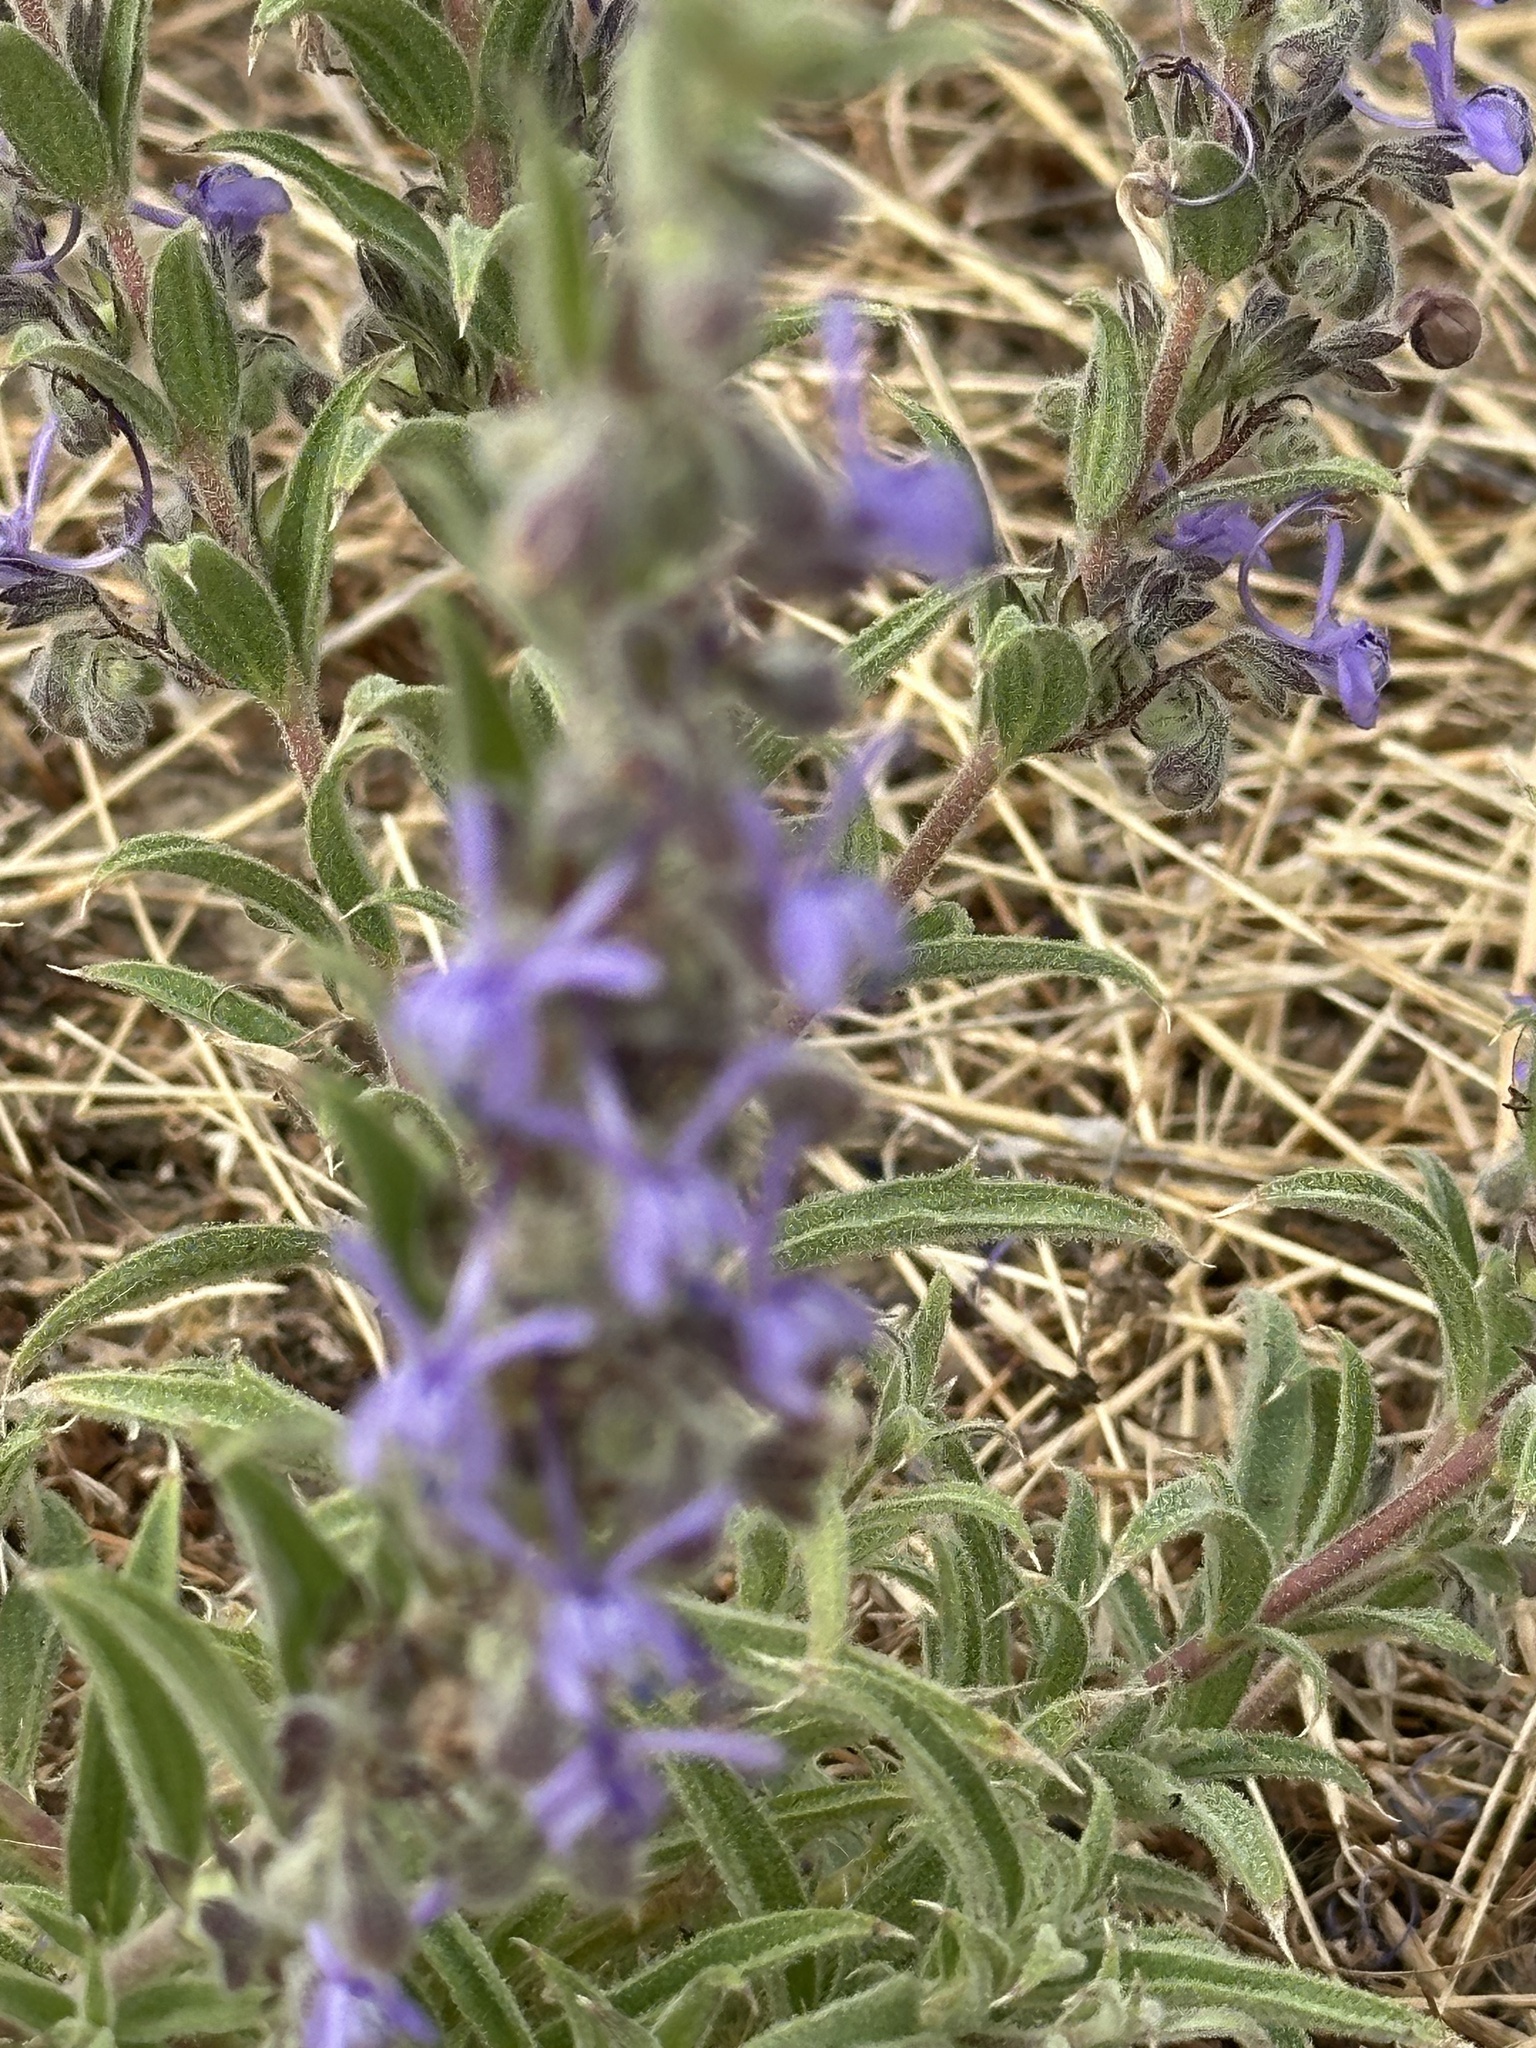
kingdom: Plantae
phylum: Tracheophyta
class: Magnoliopsida
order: Lamiales
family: Lamiaceae
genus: Trichostema
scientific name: Trichostema lanceolatum
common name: Vinegar-weed
